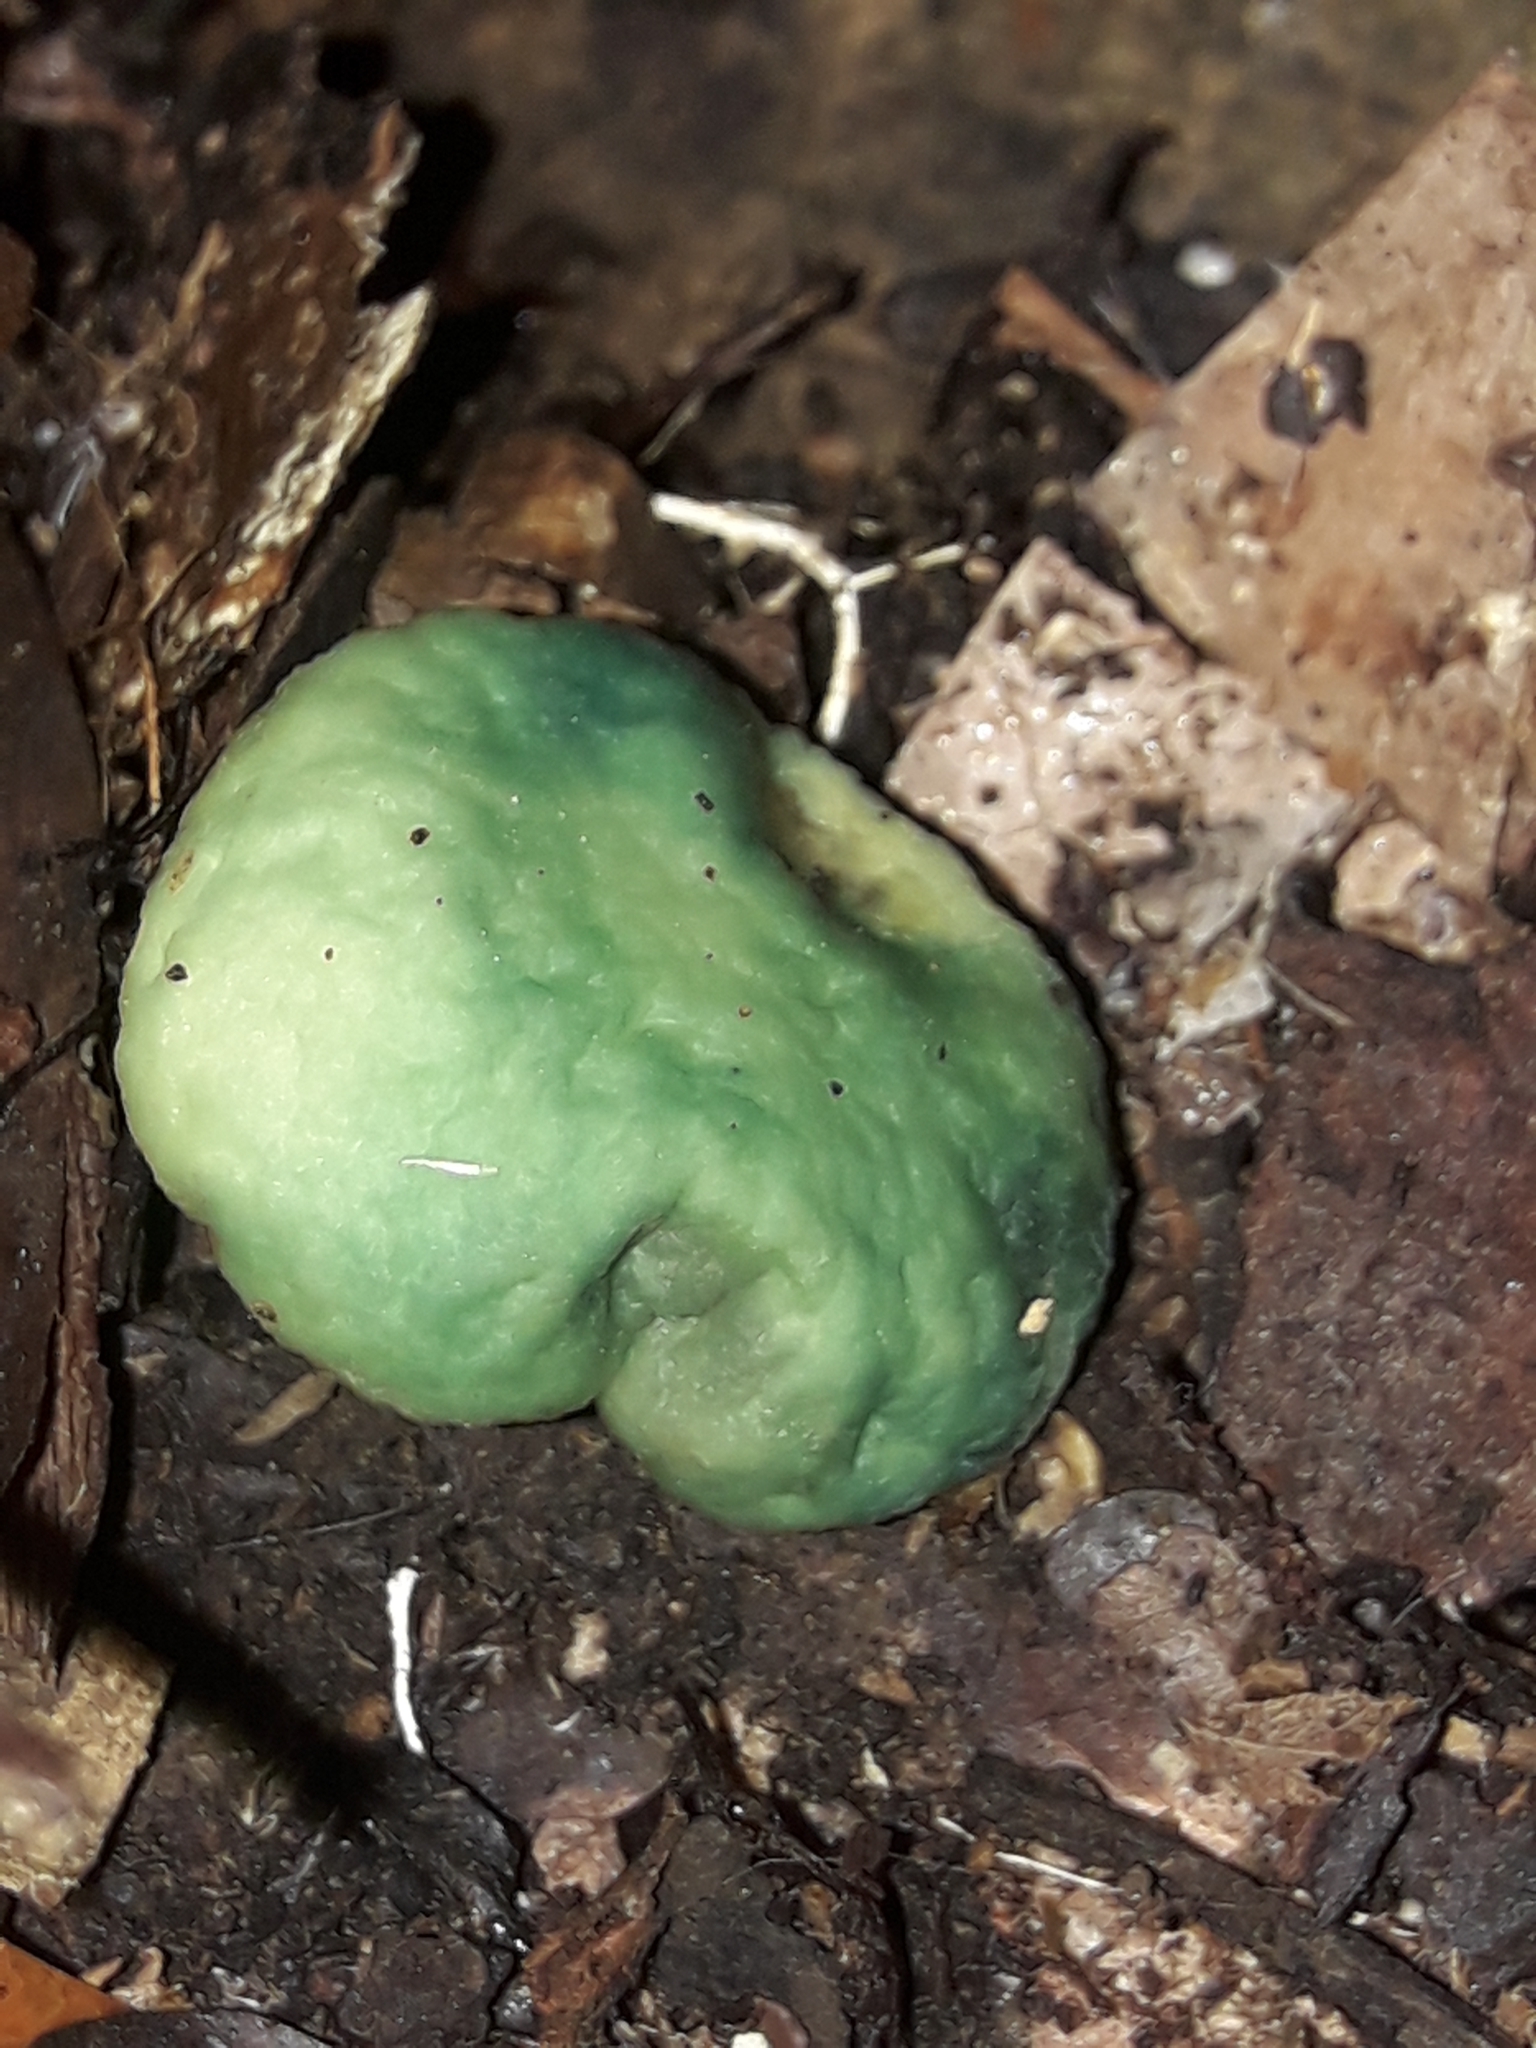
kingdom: Fungi
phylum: Basidiomycota
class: Agaricomycetes
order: Agaricales
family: Strophariaceae
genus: Leratiomyces
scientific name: Leratiomyces atrovirens
